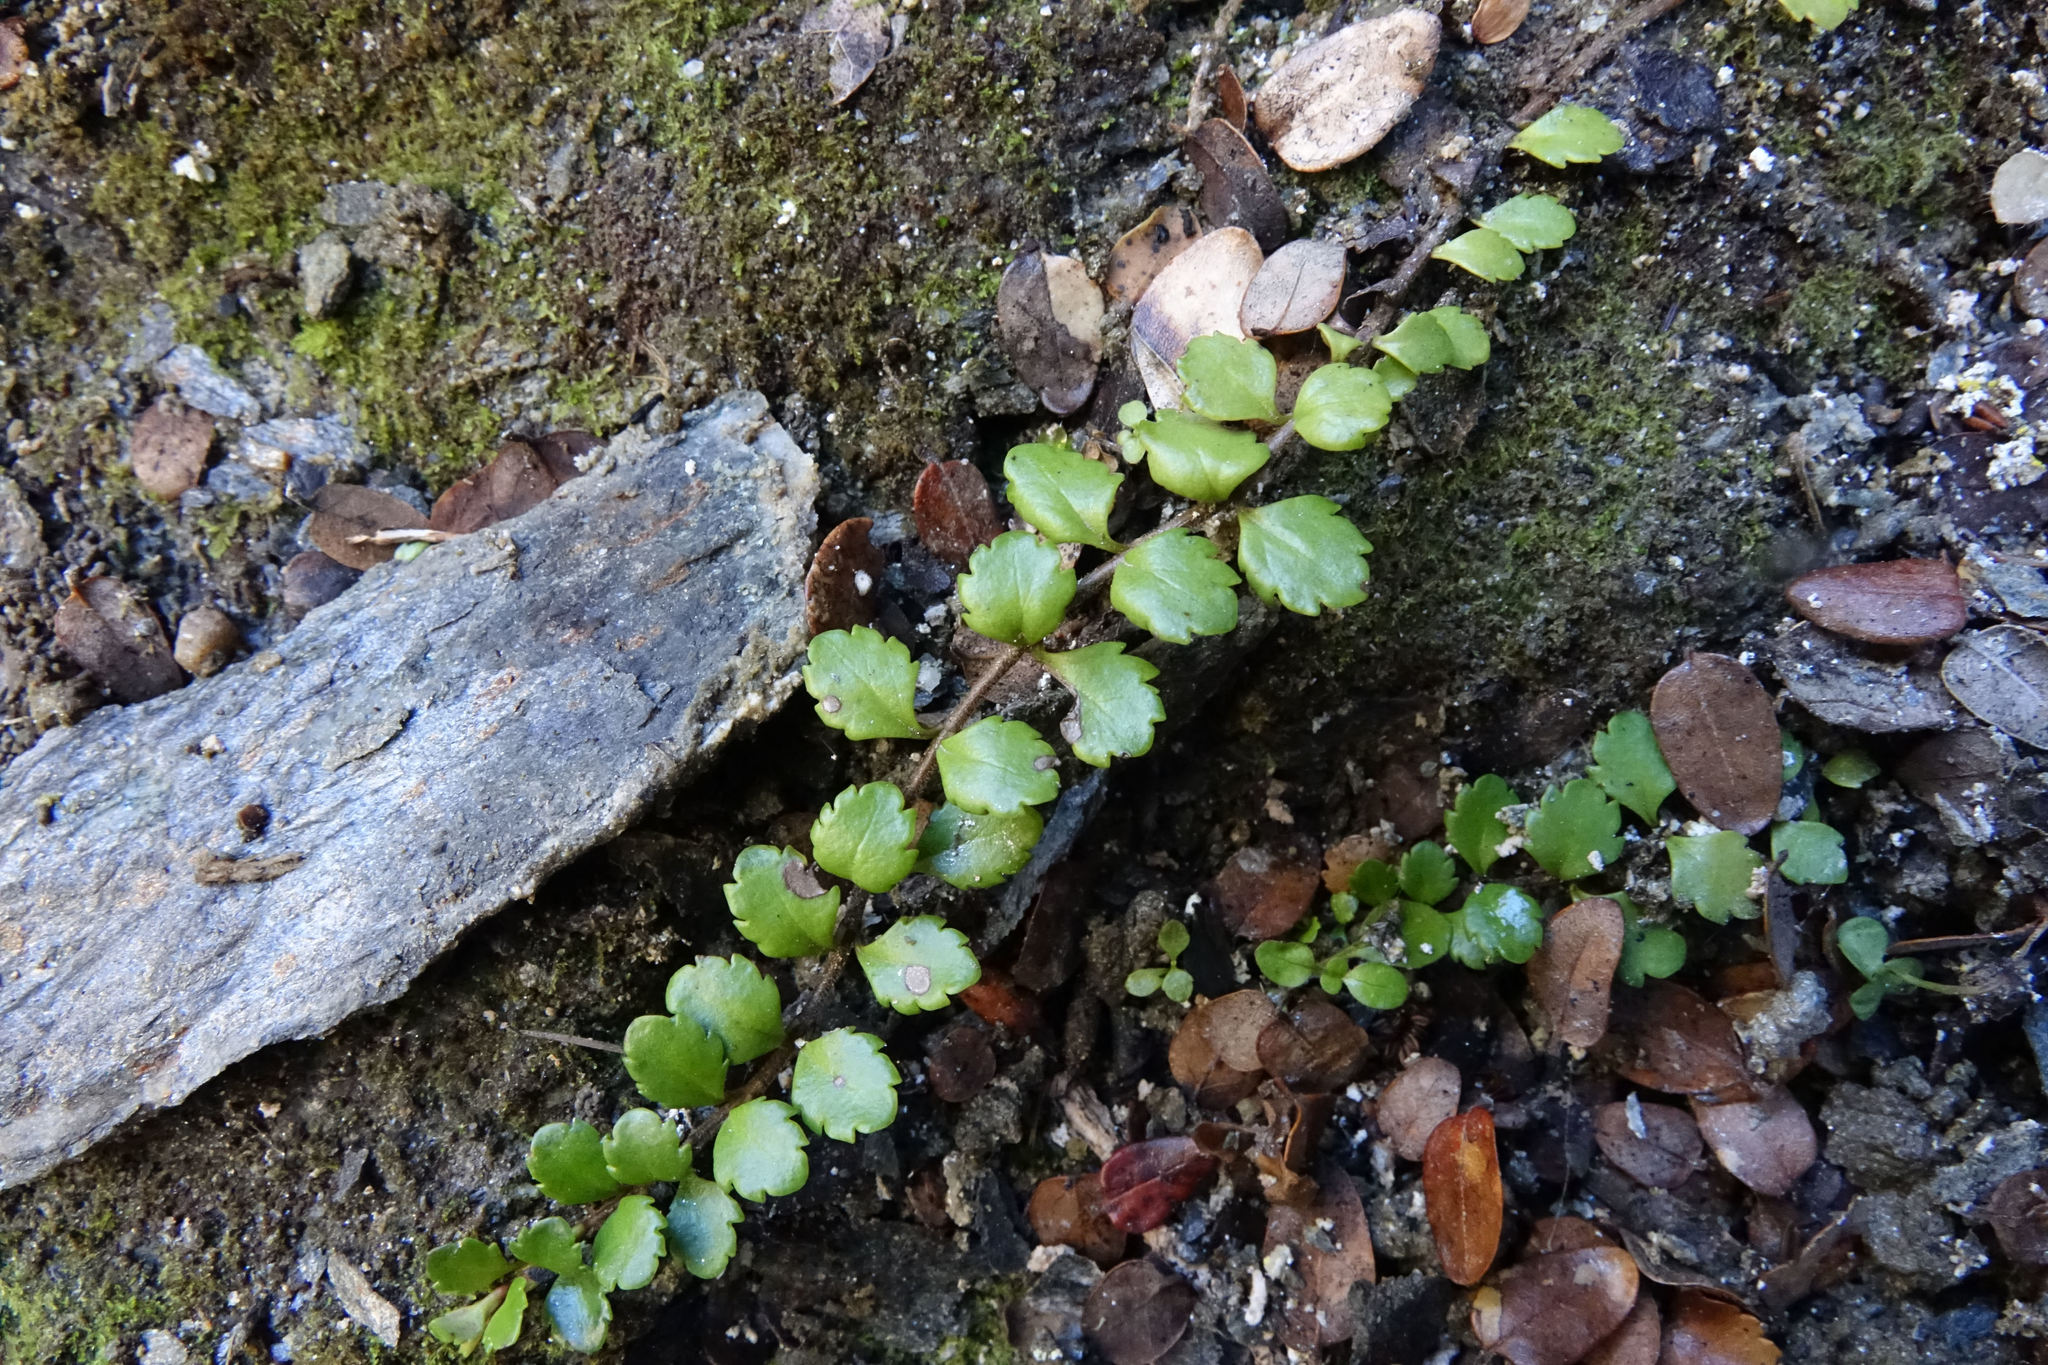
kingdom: Plantae
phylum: Tracheophyta
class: Magnoliopsida
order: Lamiales
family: Plantaginaceae
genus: Veronica
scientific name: Veronica lyallii
